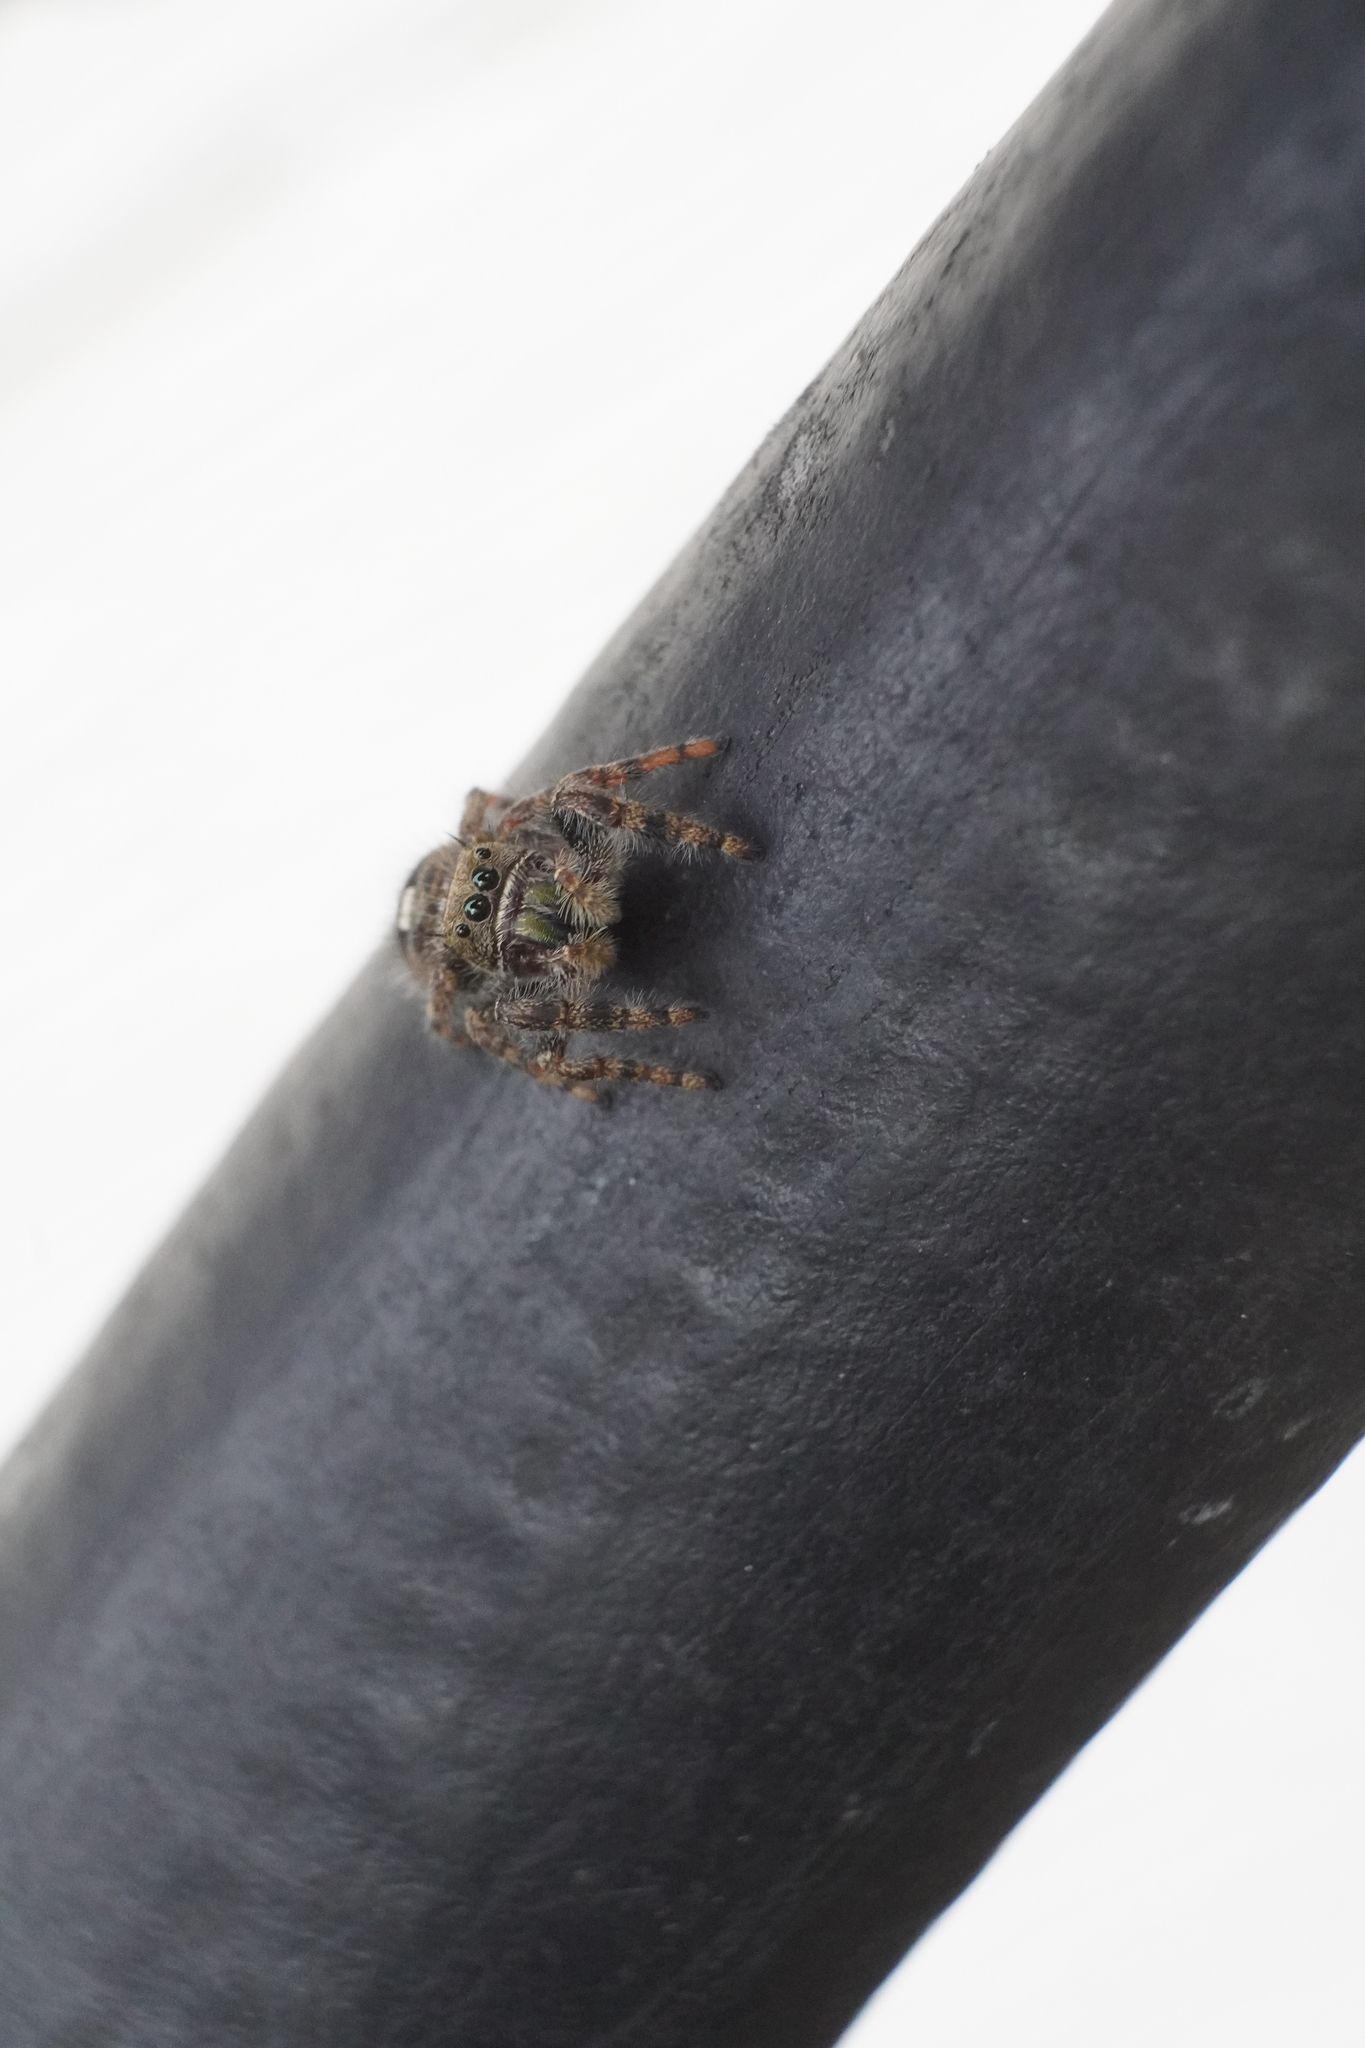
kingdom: Animalia
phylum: Arthropoda
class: Arachnida
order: Araneae
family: Salticidae
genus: Phidippus
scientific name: Phidippus audax
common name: Bold jumper
